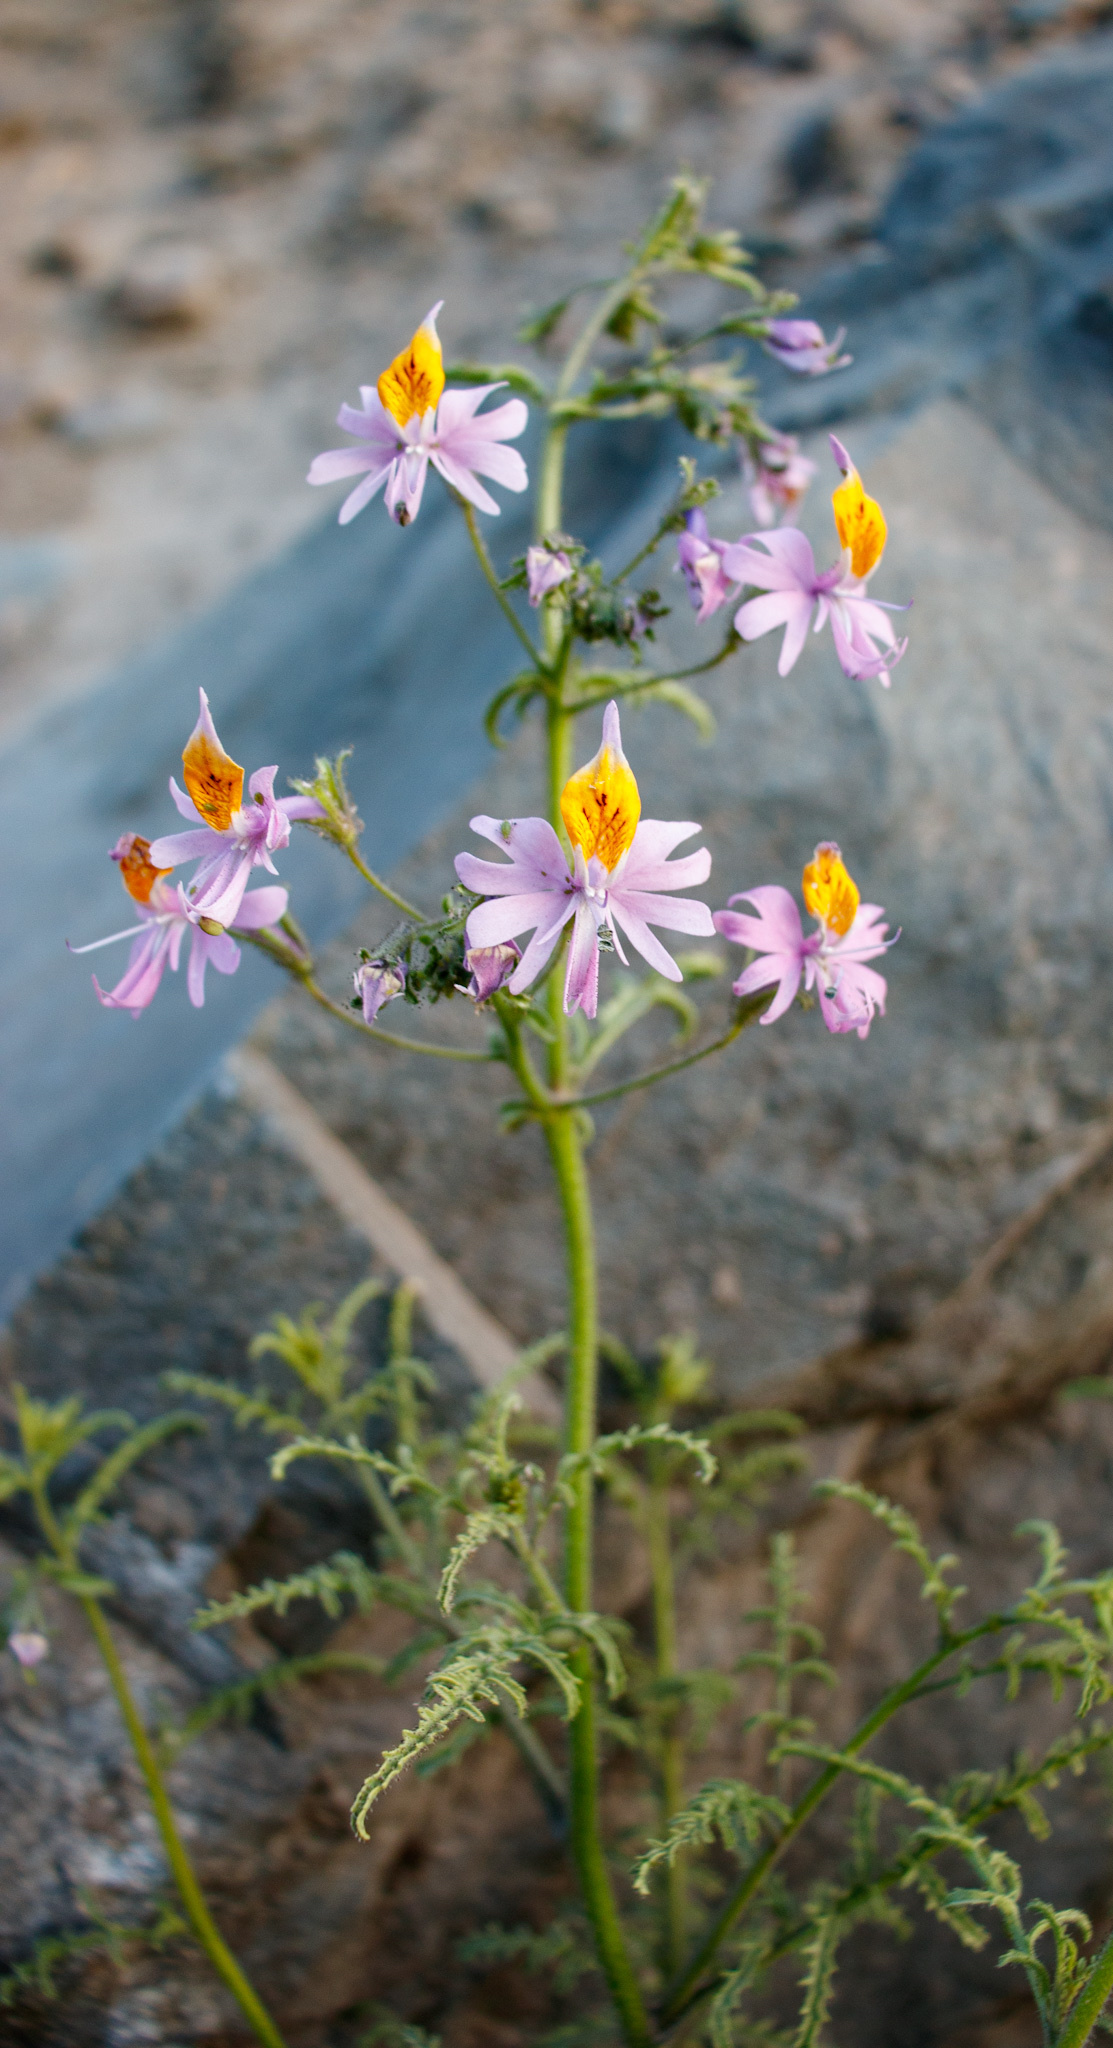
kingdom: Plantae
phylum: Tracheophyta
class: Magnoliopsida
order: Solanales
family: Solanaceae
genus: Schizanthus
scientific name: Schizanthus hookeri
